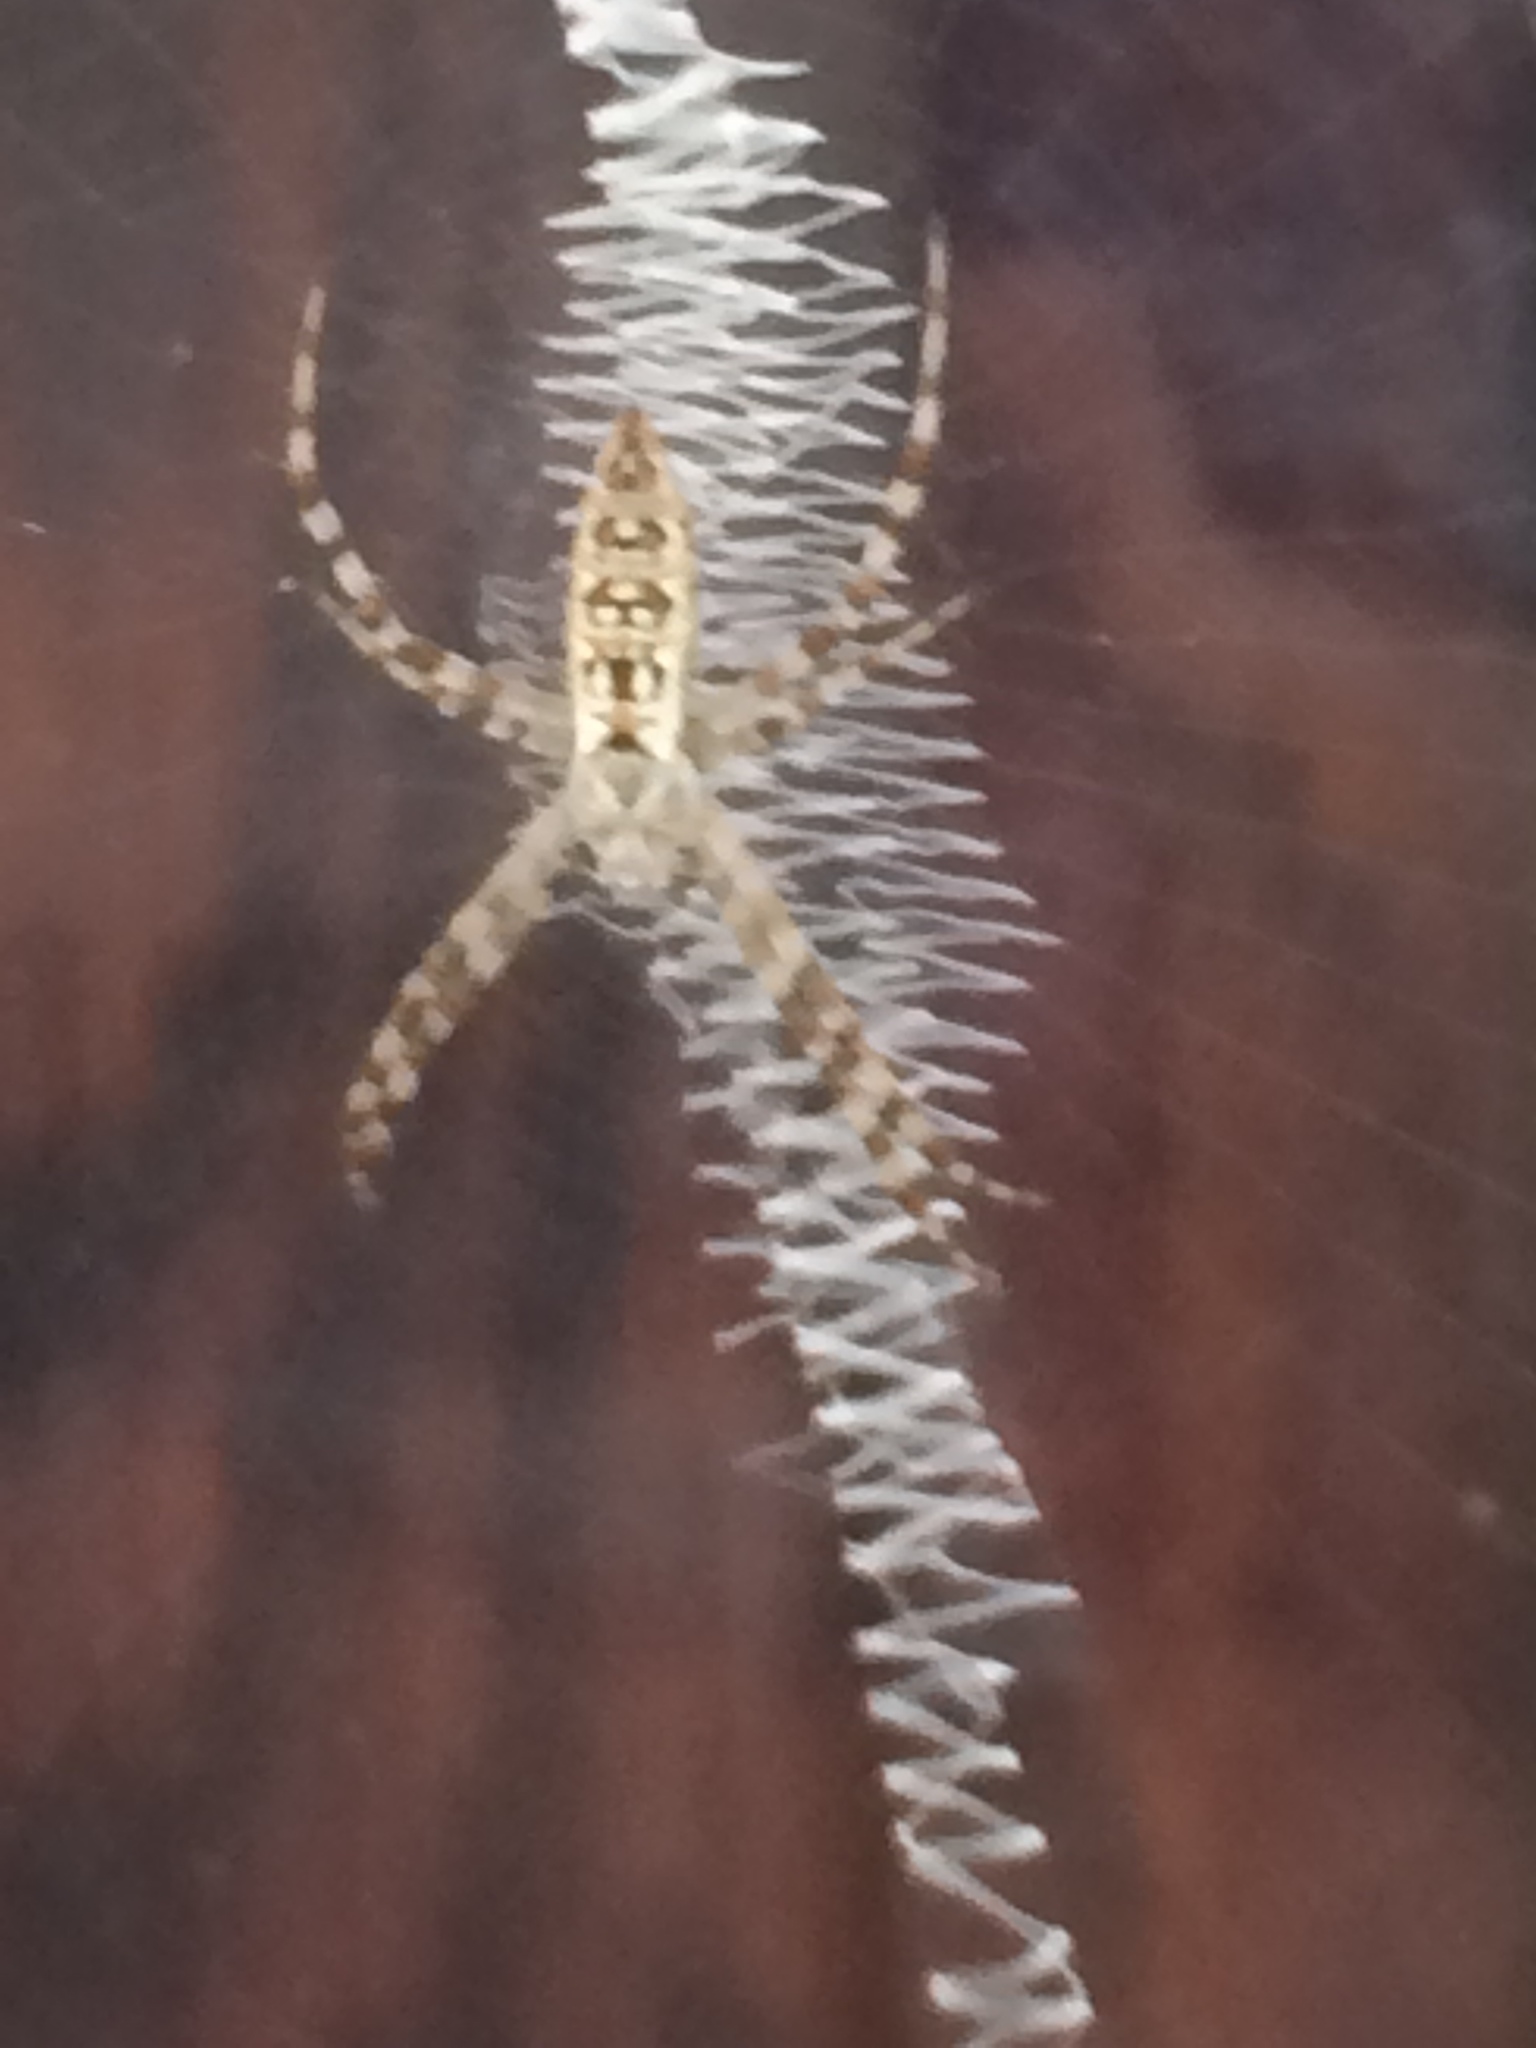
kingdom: Animalia
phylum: Arthropoda
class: Arachnida
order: Araneae
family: Araneidae
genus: Argiope
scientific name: Argiope aurantia
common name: Orb weavers
